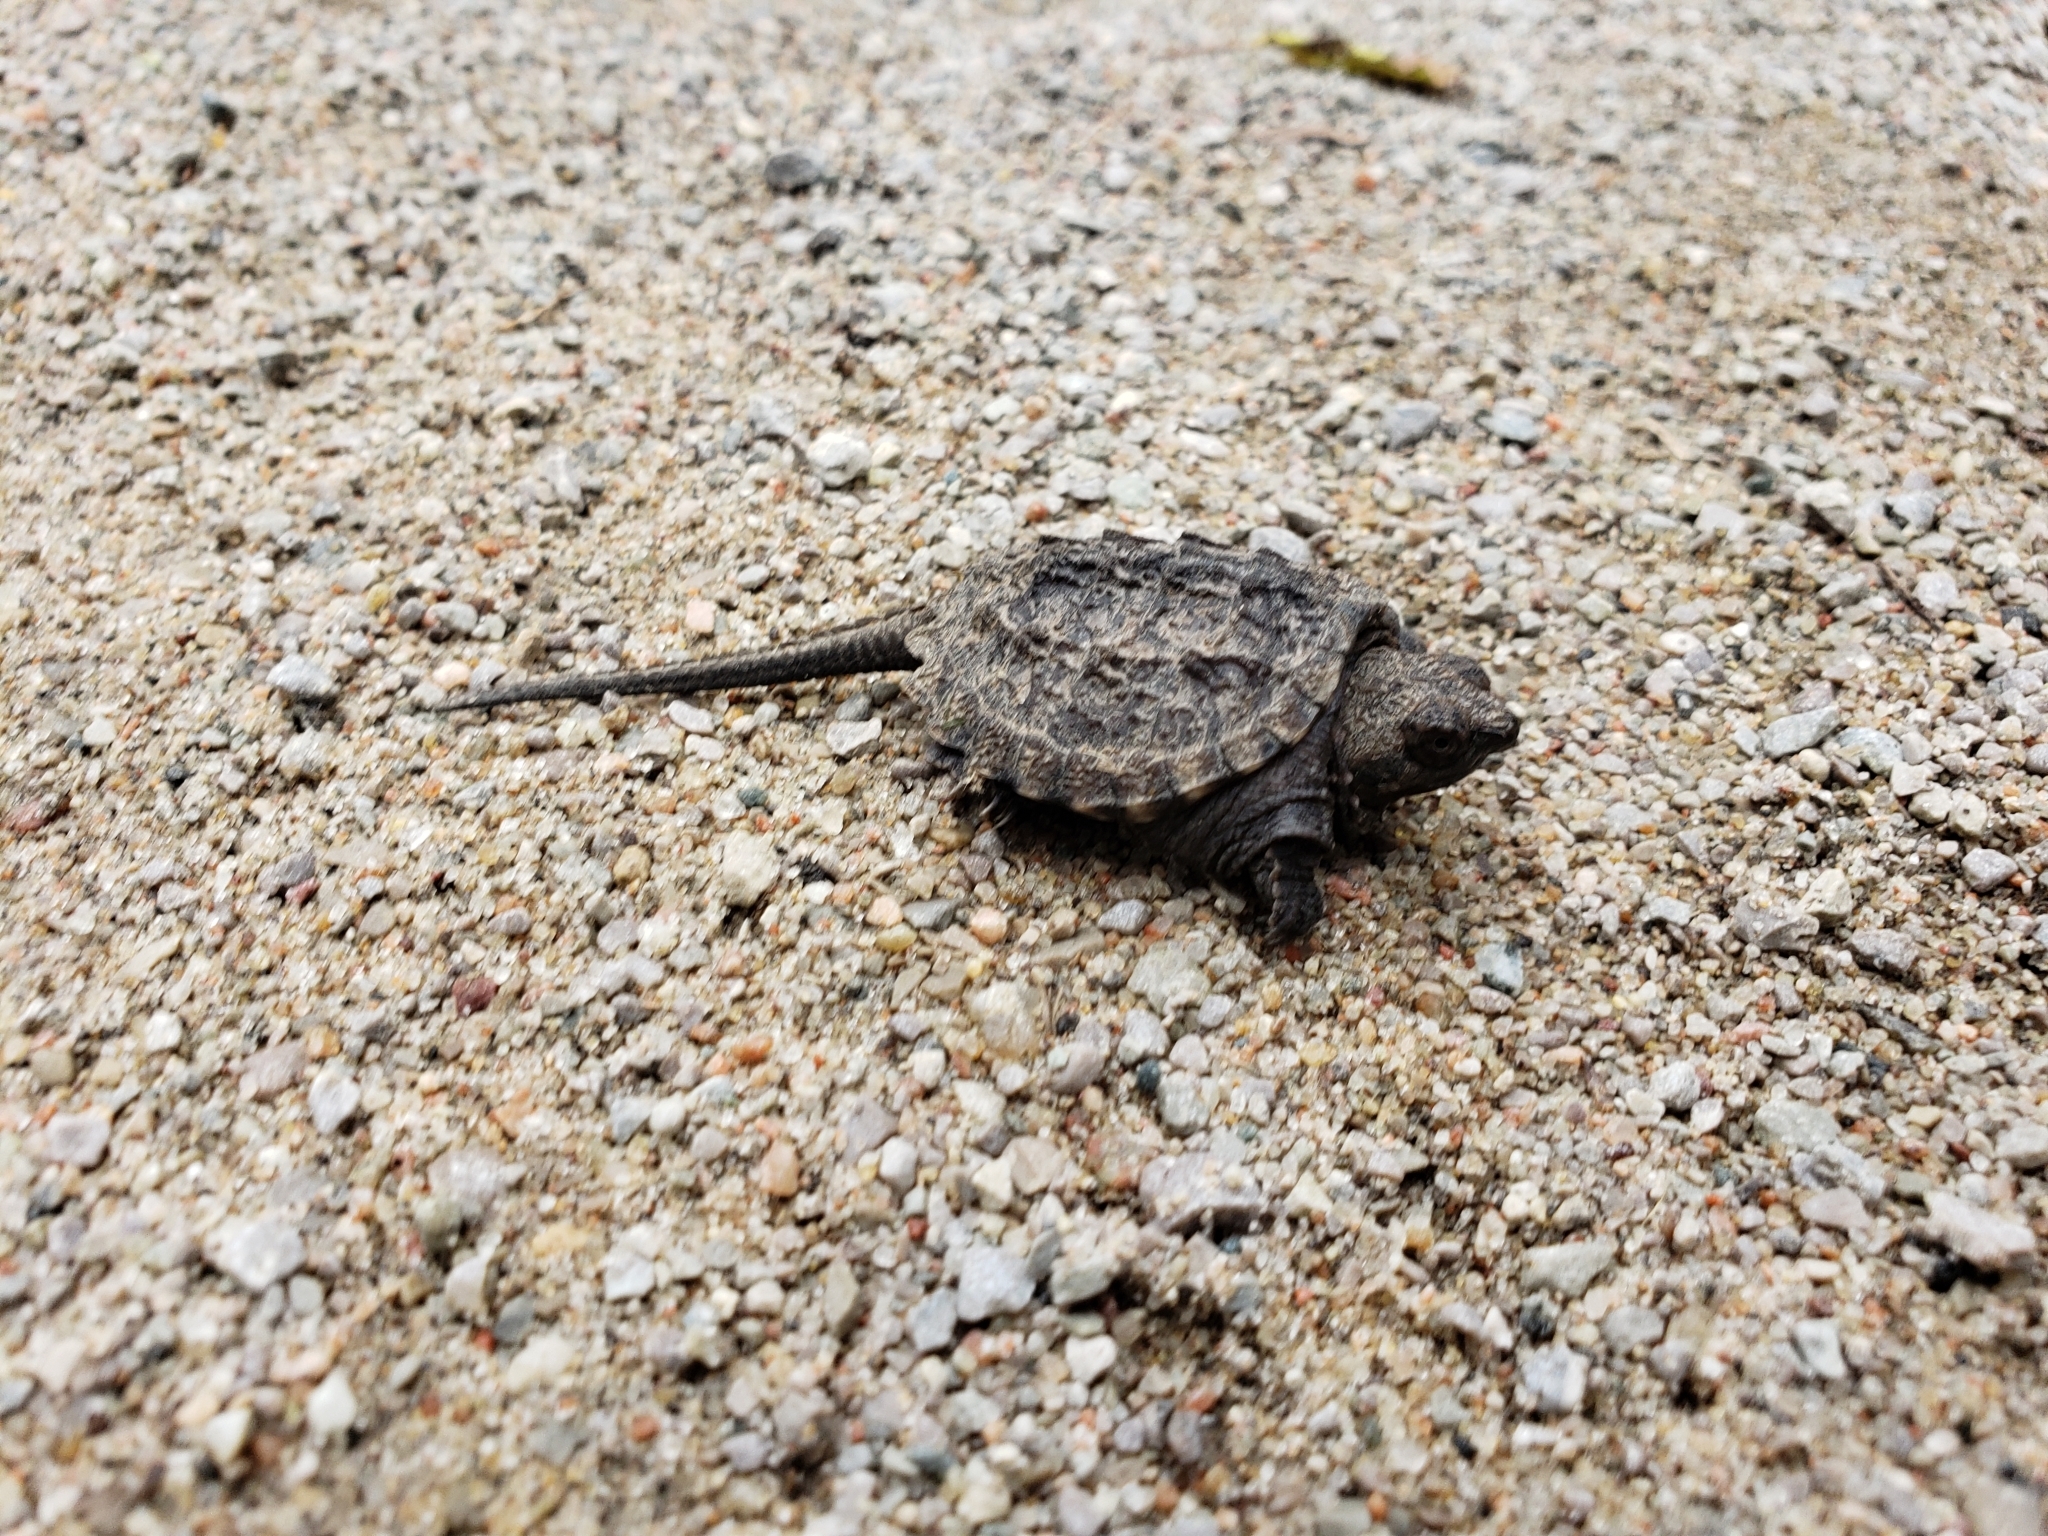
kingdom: Animalia
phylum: Chordata
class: Testudines
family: Chelydridae
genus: Chelydra
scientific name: Chelydra serpentina
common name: Common snapping turtle
